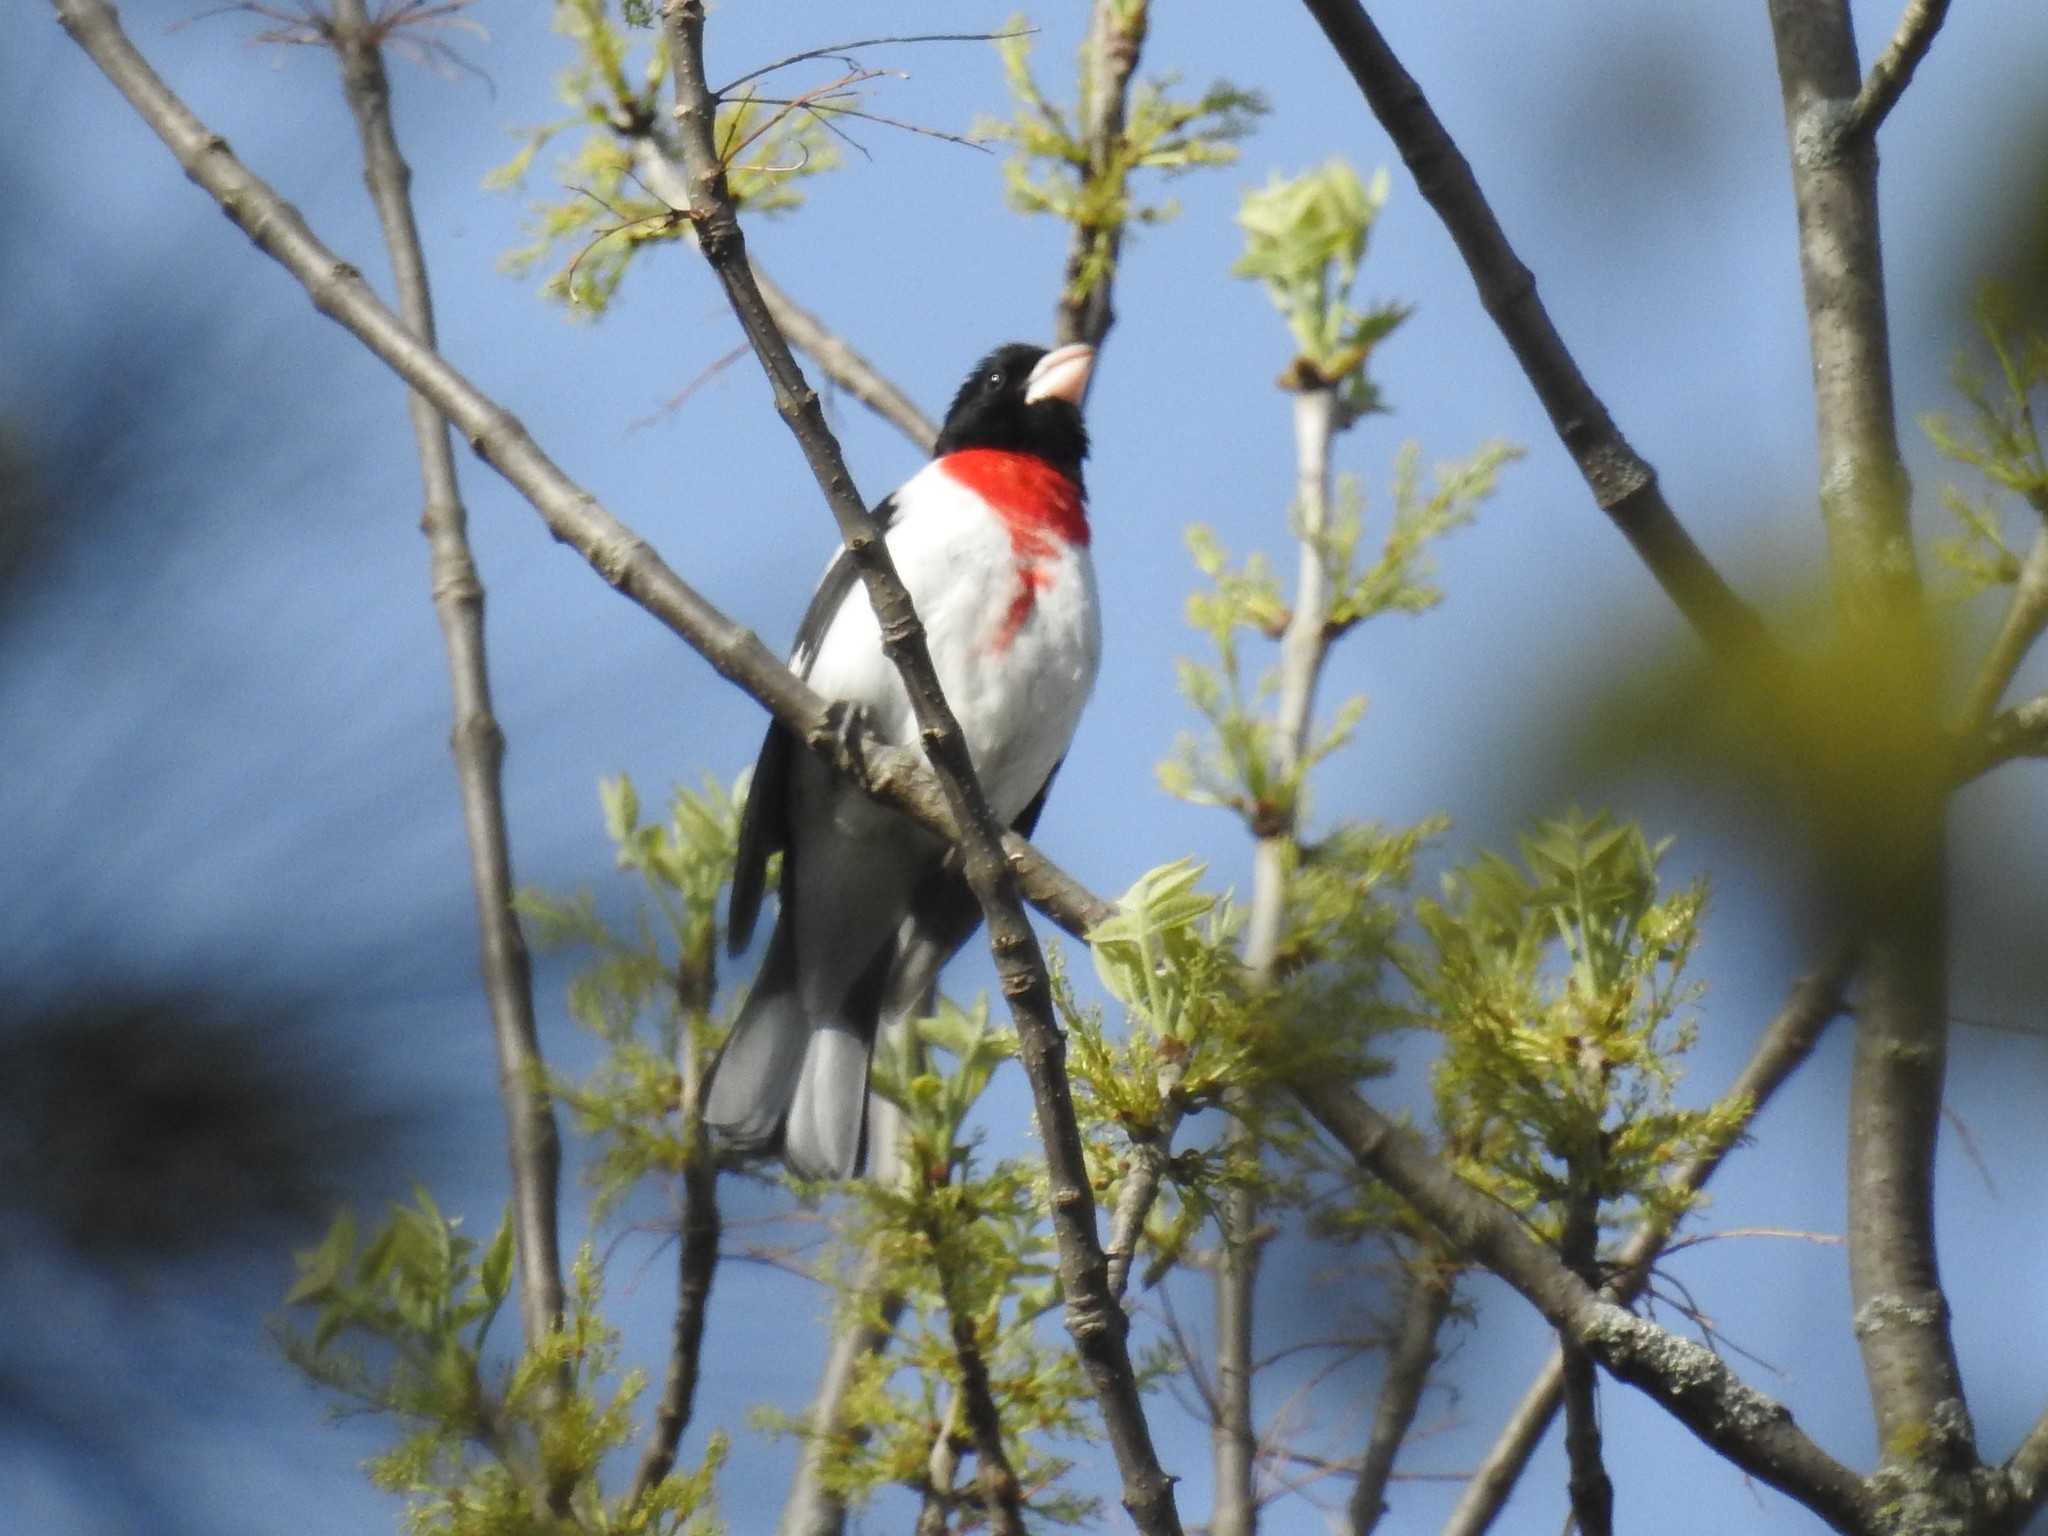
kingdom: Animalia
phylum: Chordata
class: Aves
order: Passeriformes
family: Cardinalidae
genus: Pheucticus
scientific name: Pheucticus ludovicianus
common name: Rose-breasted grosbeak
